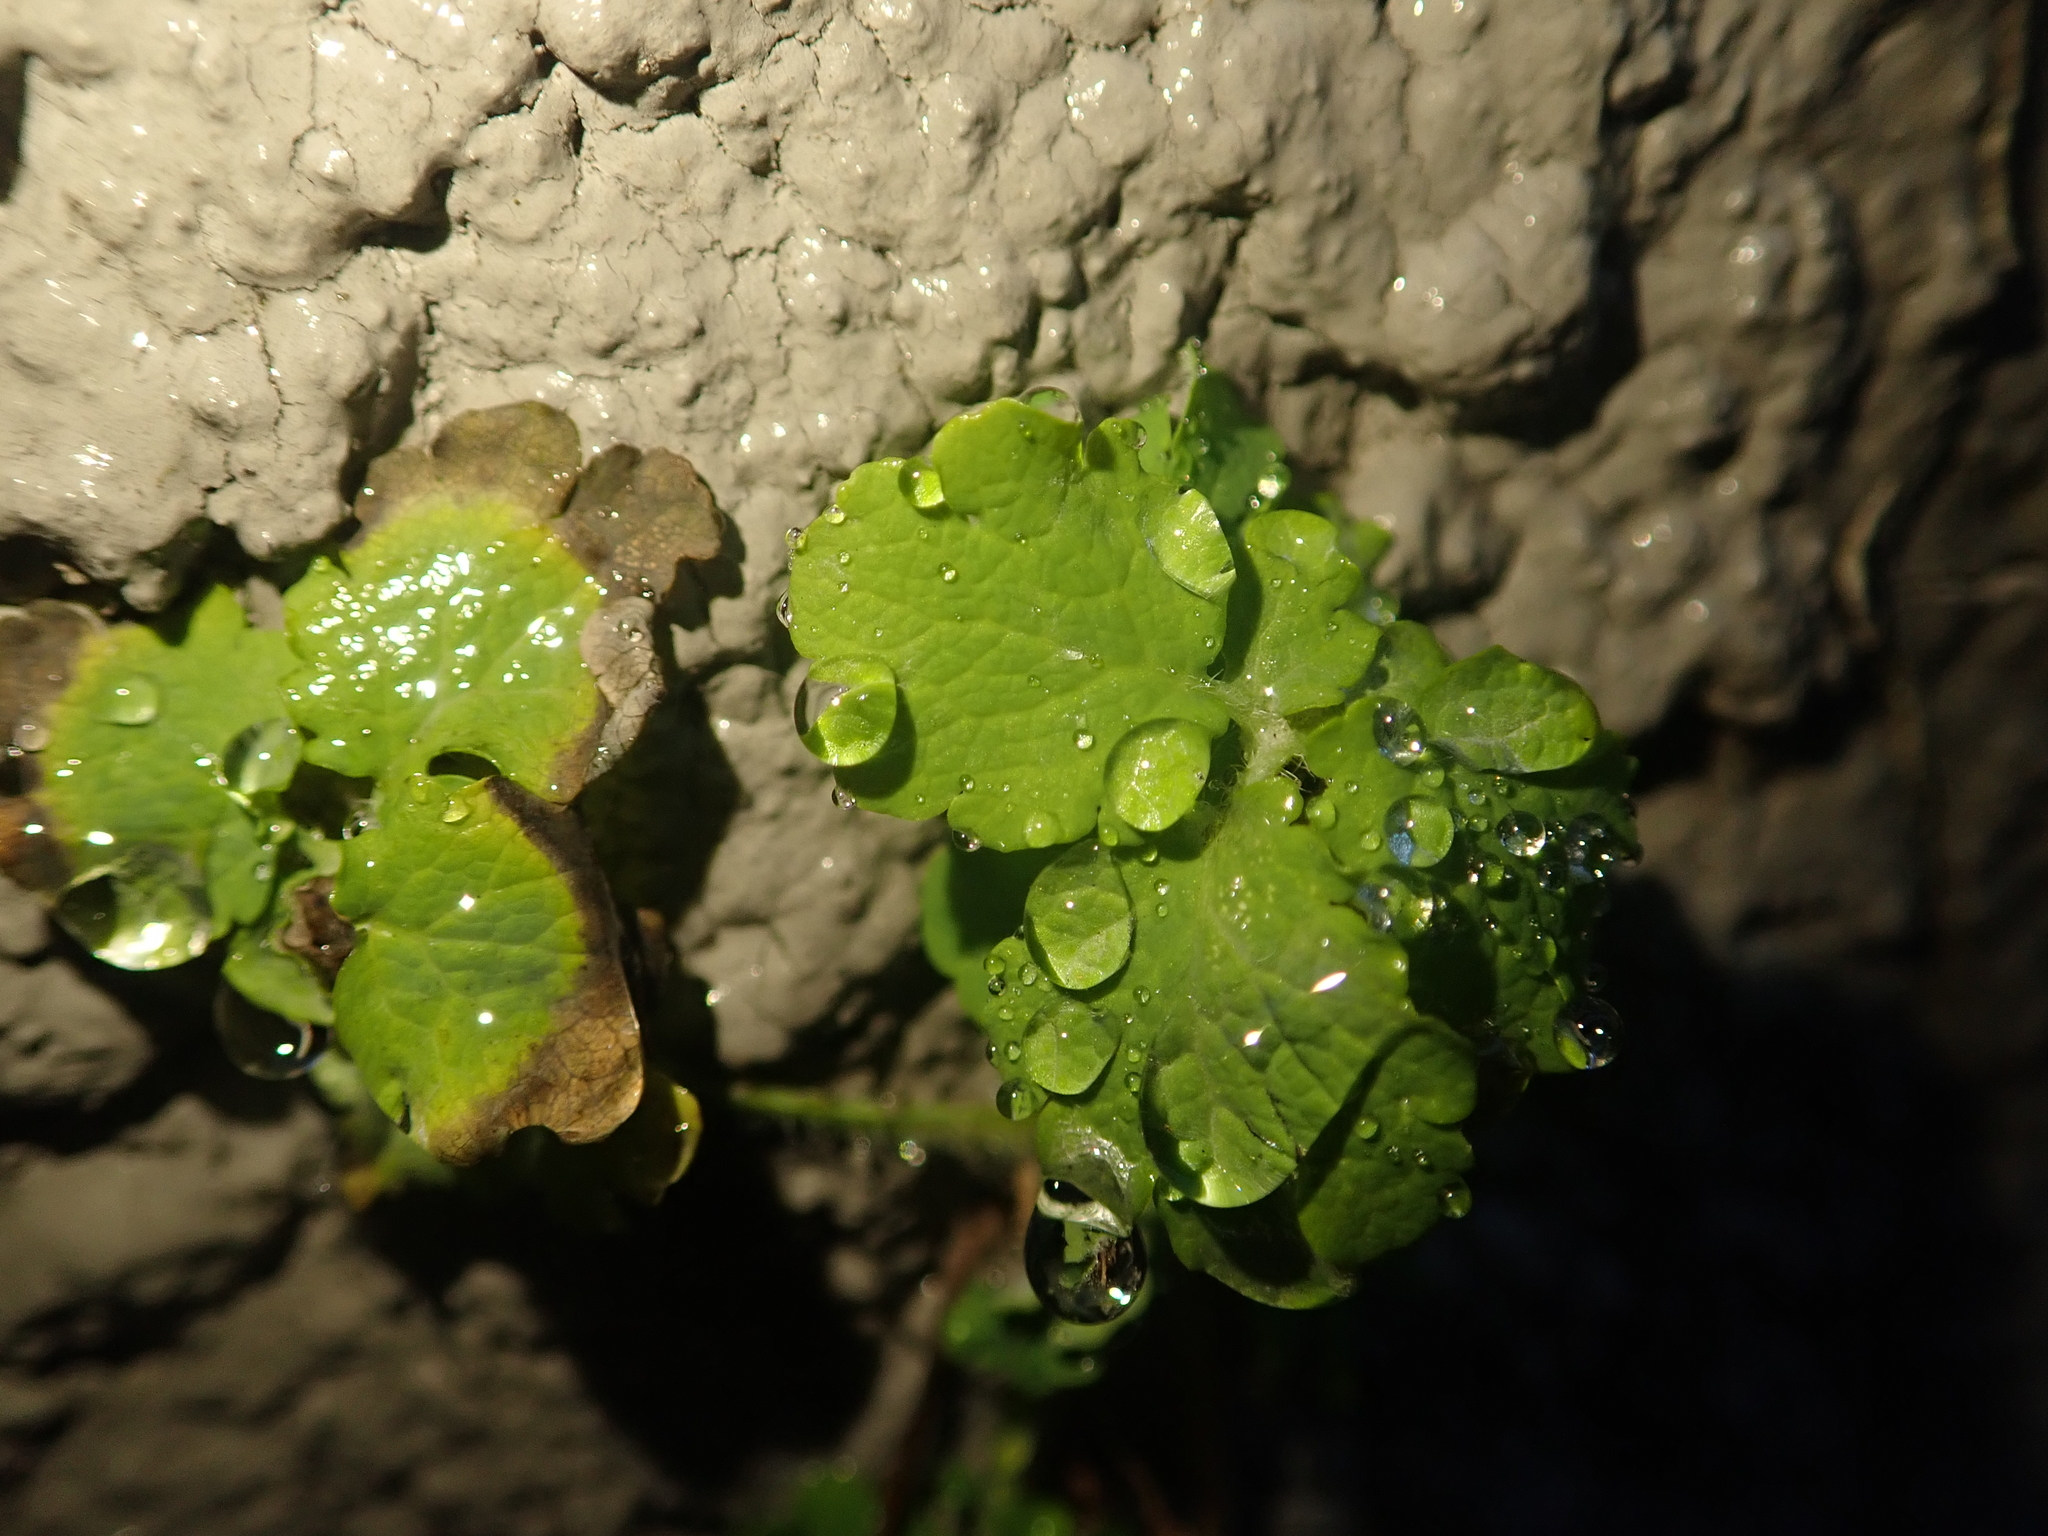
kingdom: Plantae
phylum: Tracheophyta
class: Magnoliopsida
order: Ranunculales
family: Papaveraceae
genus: Chelidonium
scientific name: Chelidonium majus
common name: Greater celandine
